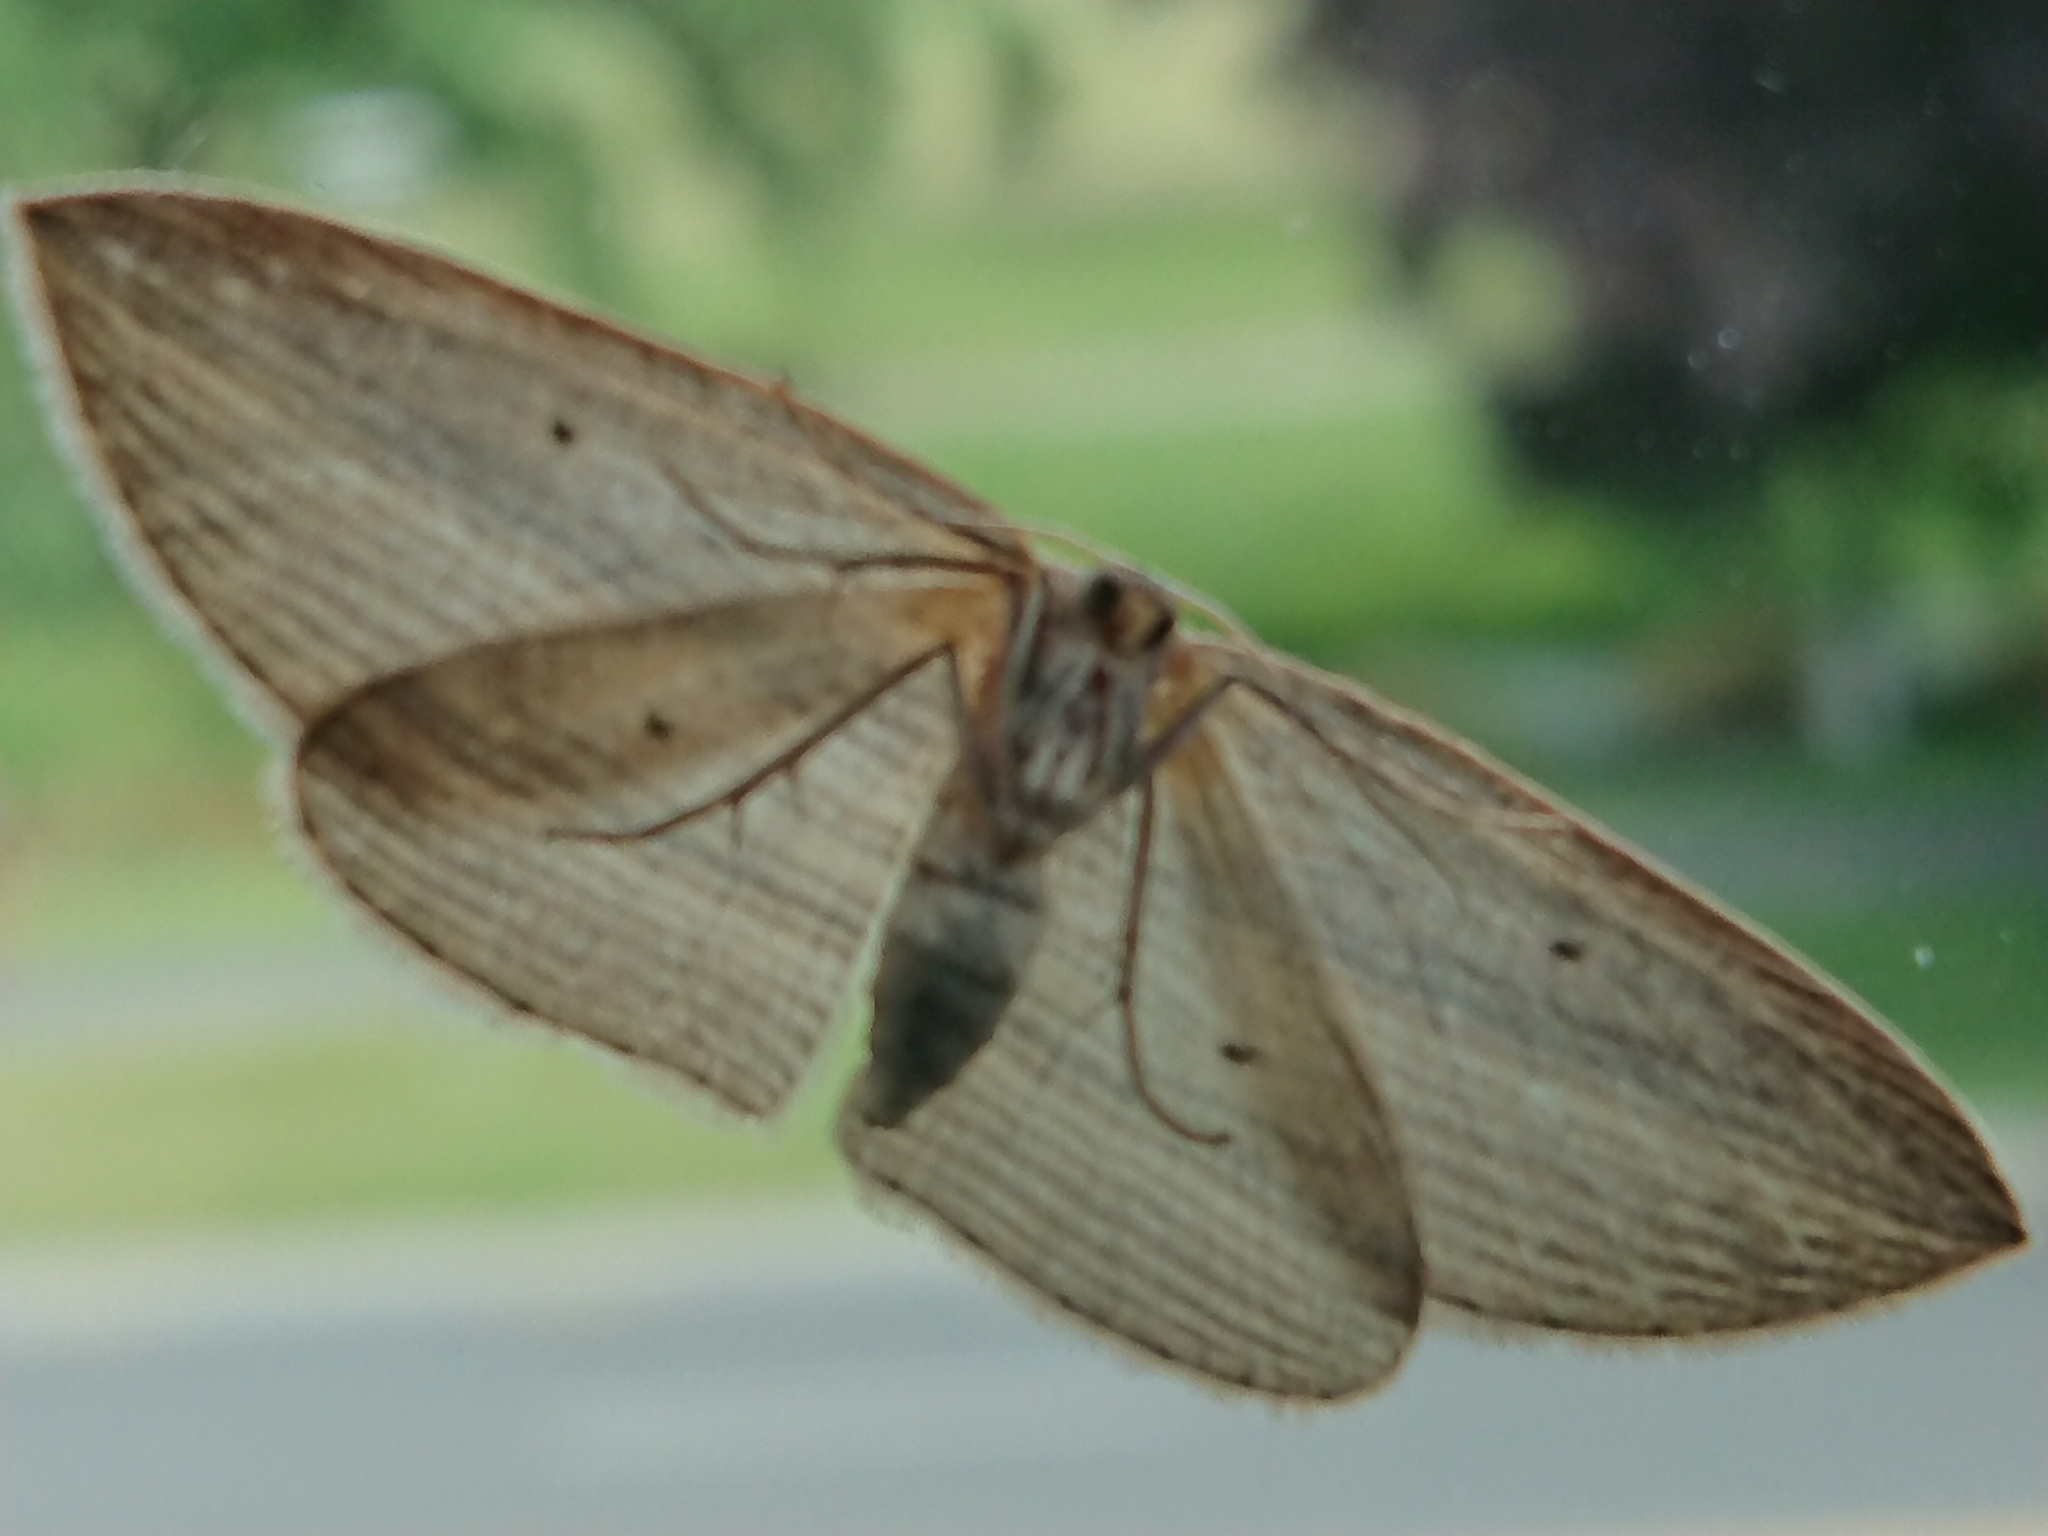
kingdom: Animalia
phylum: Arthropoda
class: Insecta
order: Lepidoptera
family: Geometridae
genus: Epiphryne
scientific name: Epiphryne verriculata
